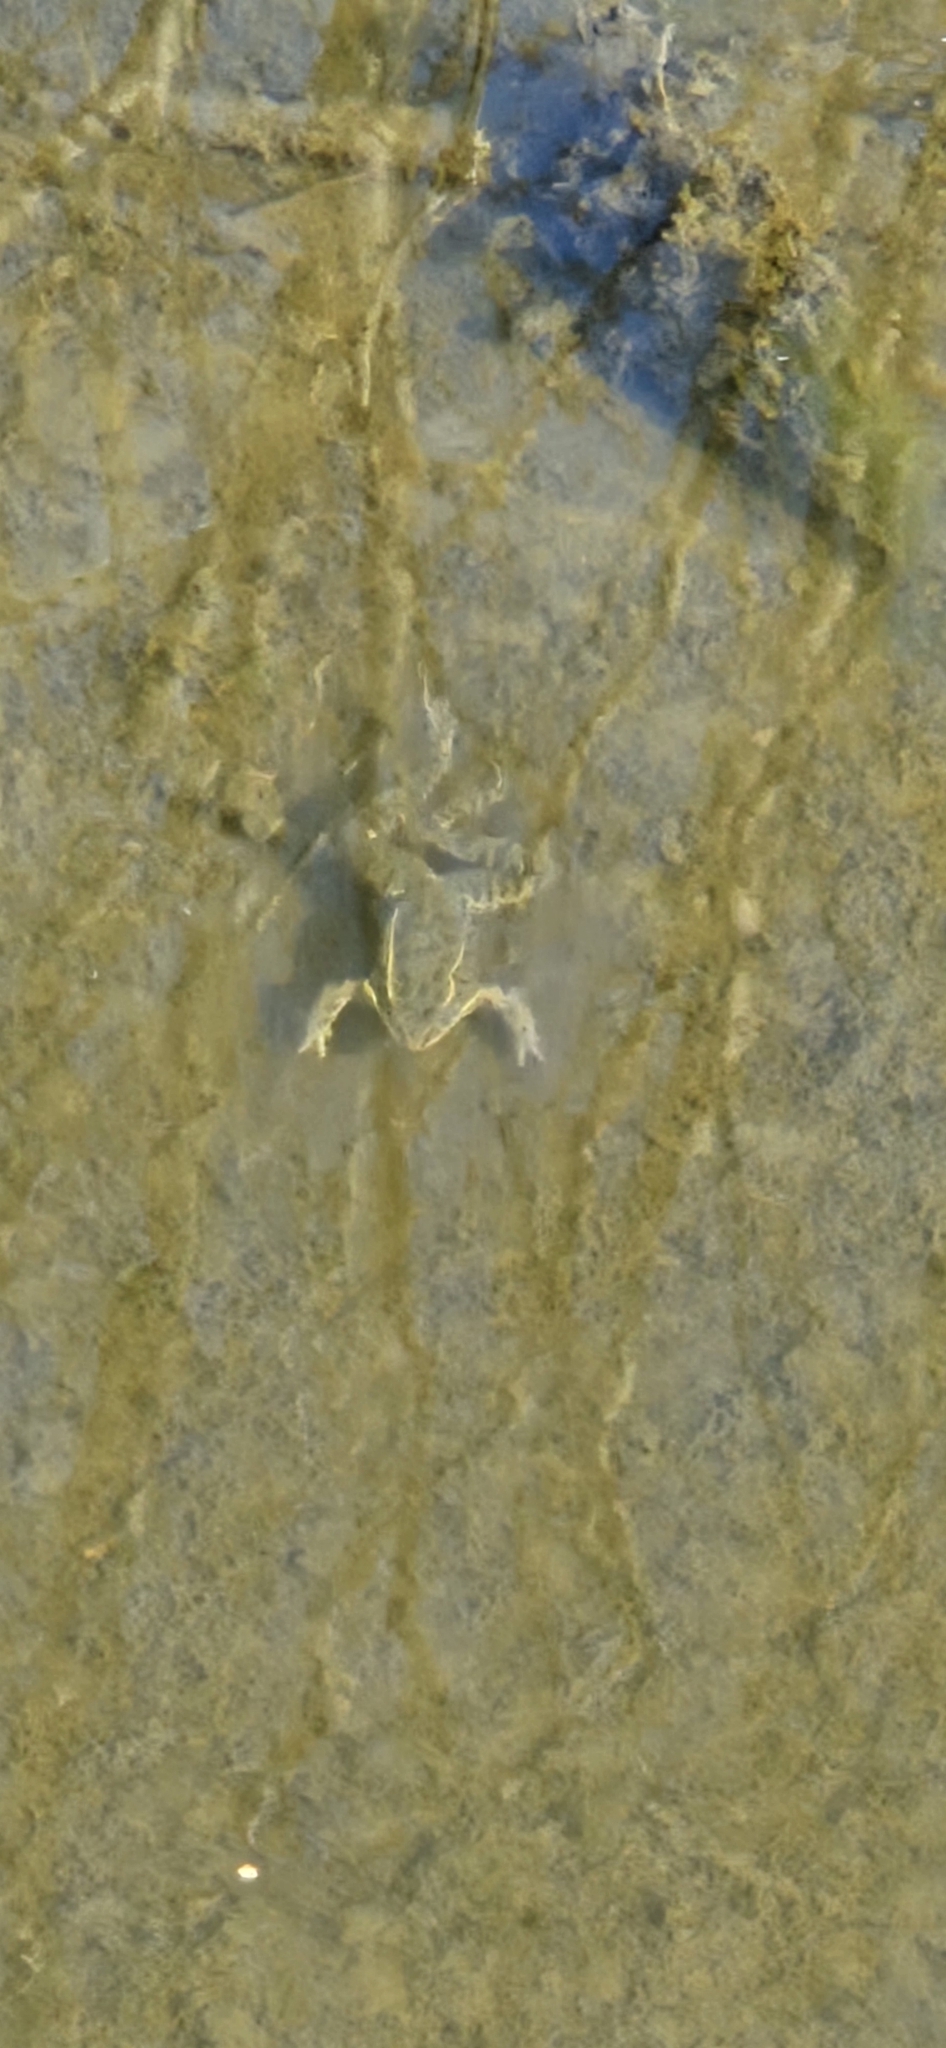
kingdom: Animalia
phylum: Chordata
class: Amphibia
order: Anura
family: Ranidae
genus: Lithobates
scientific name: Lithobates blairi
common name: Plains leopard frog
